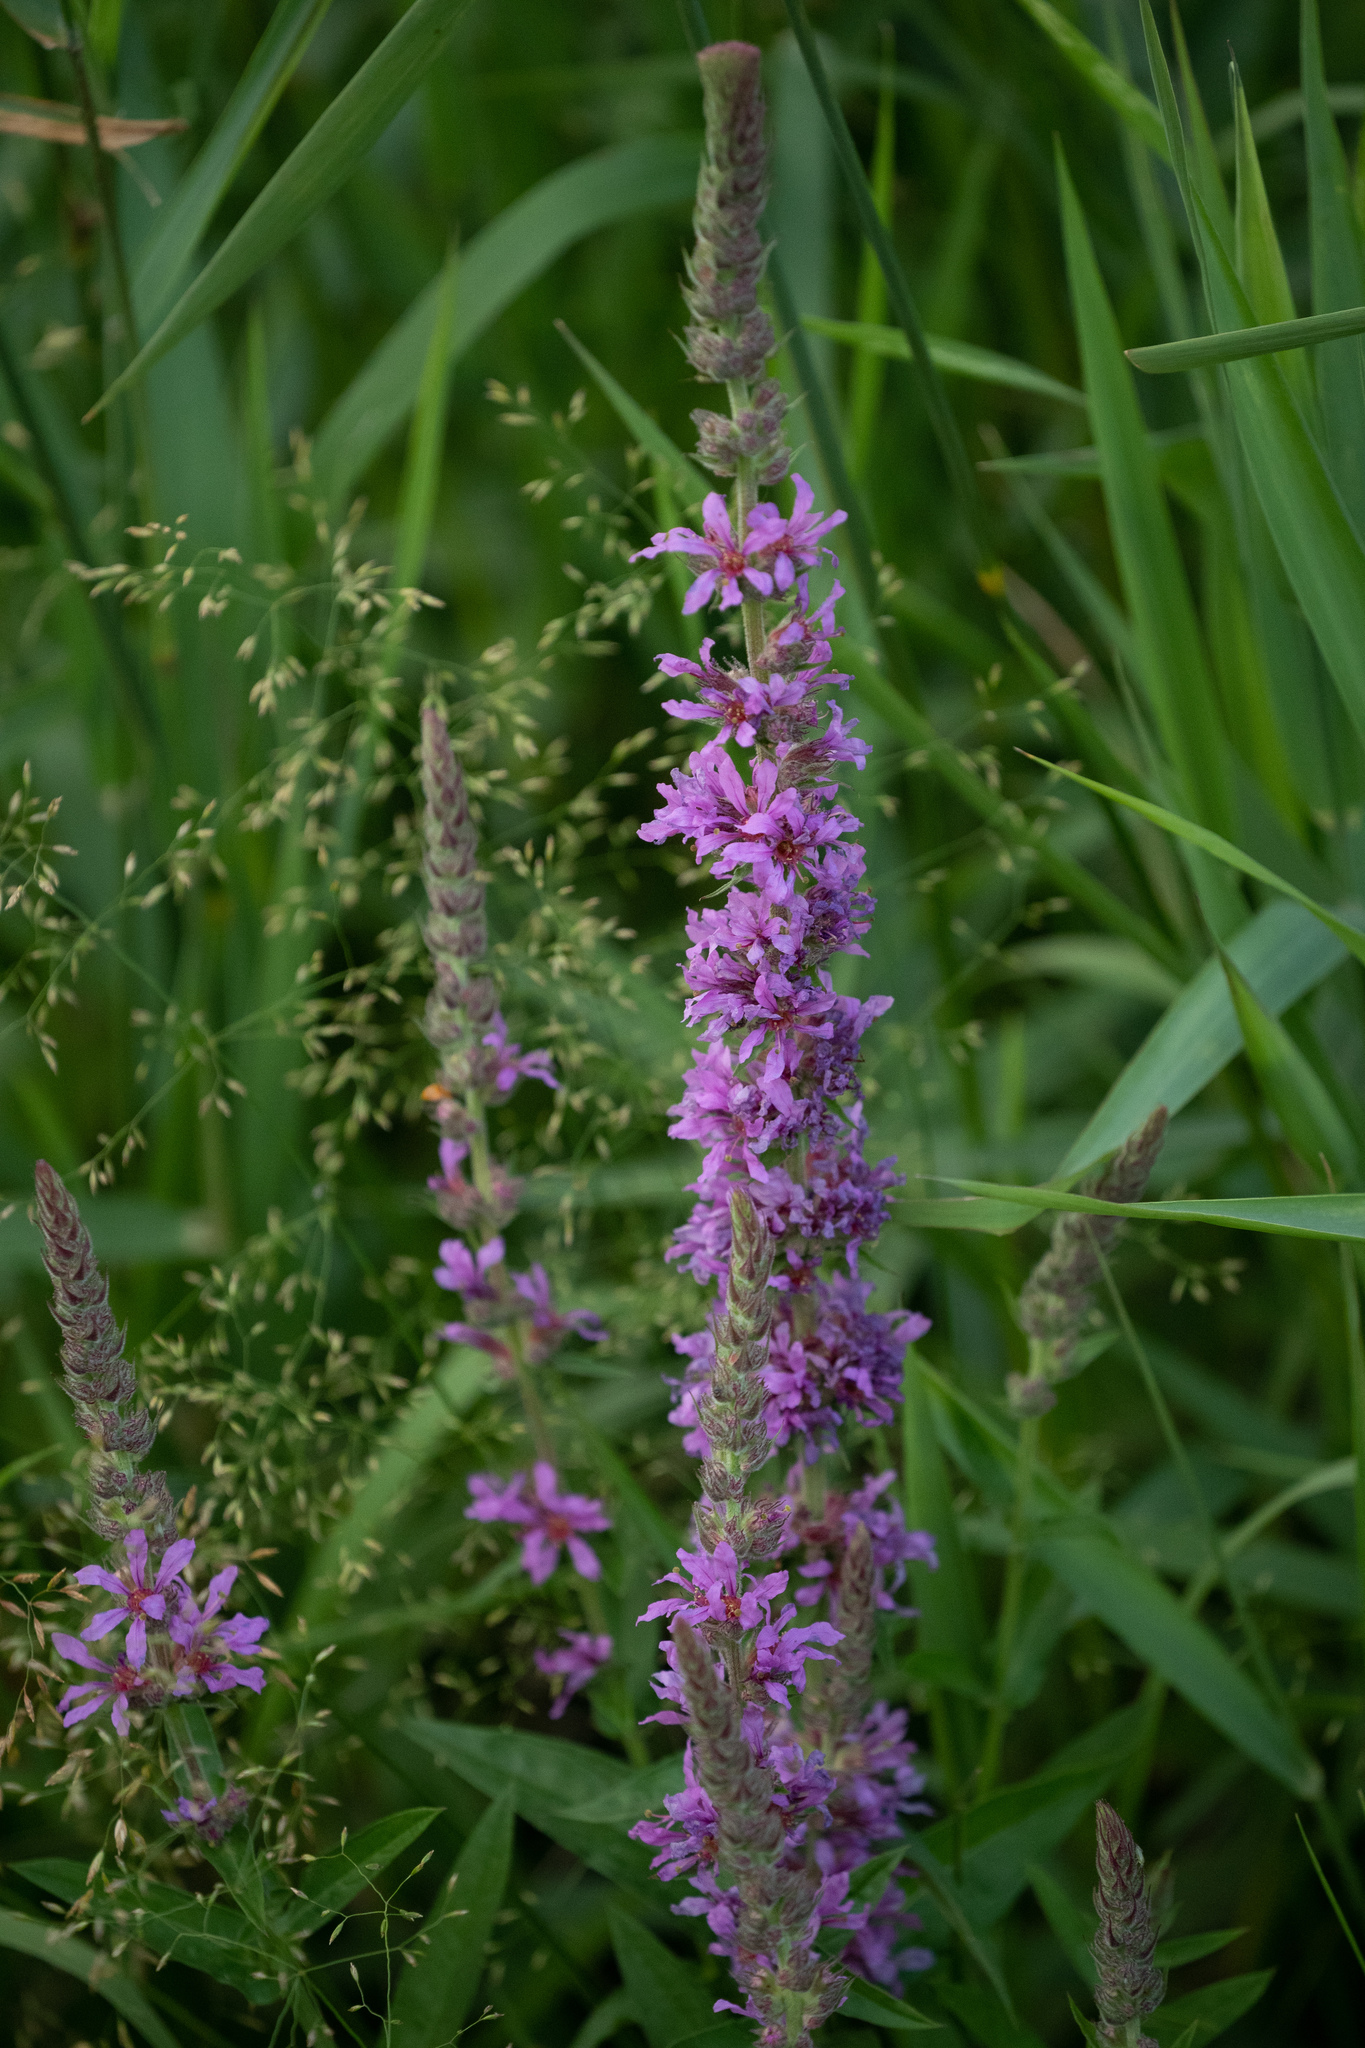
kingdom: Plantae
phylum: Tracheophyta
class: Magnoliopsida
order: Myrtales
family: Lythraceae
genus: Lythrum
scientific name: Lythrum salicaria
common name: Purple loosestrife
